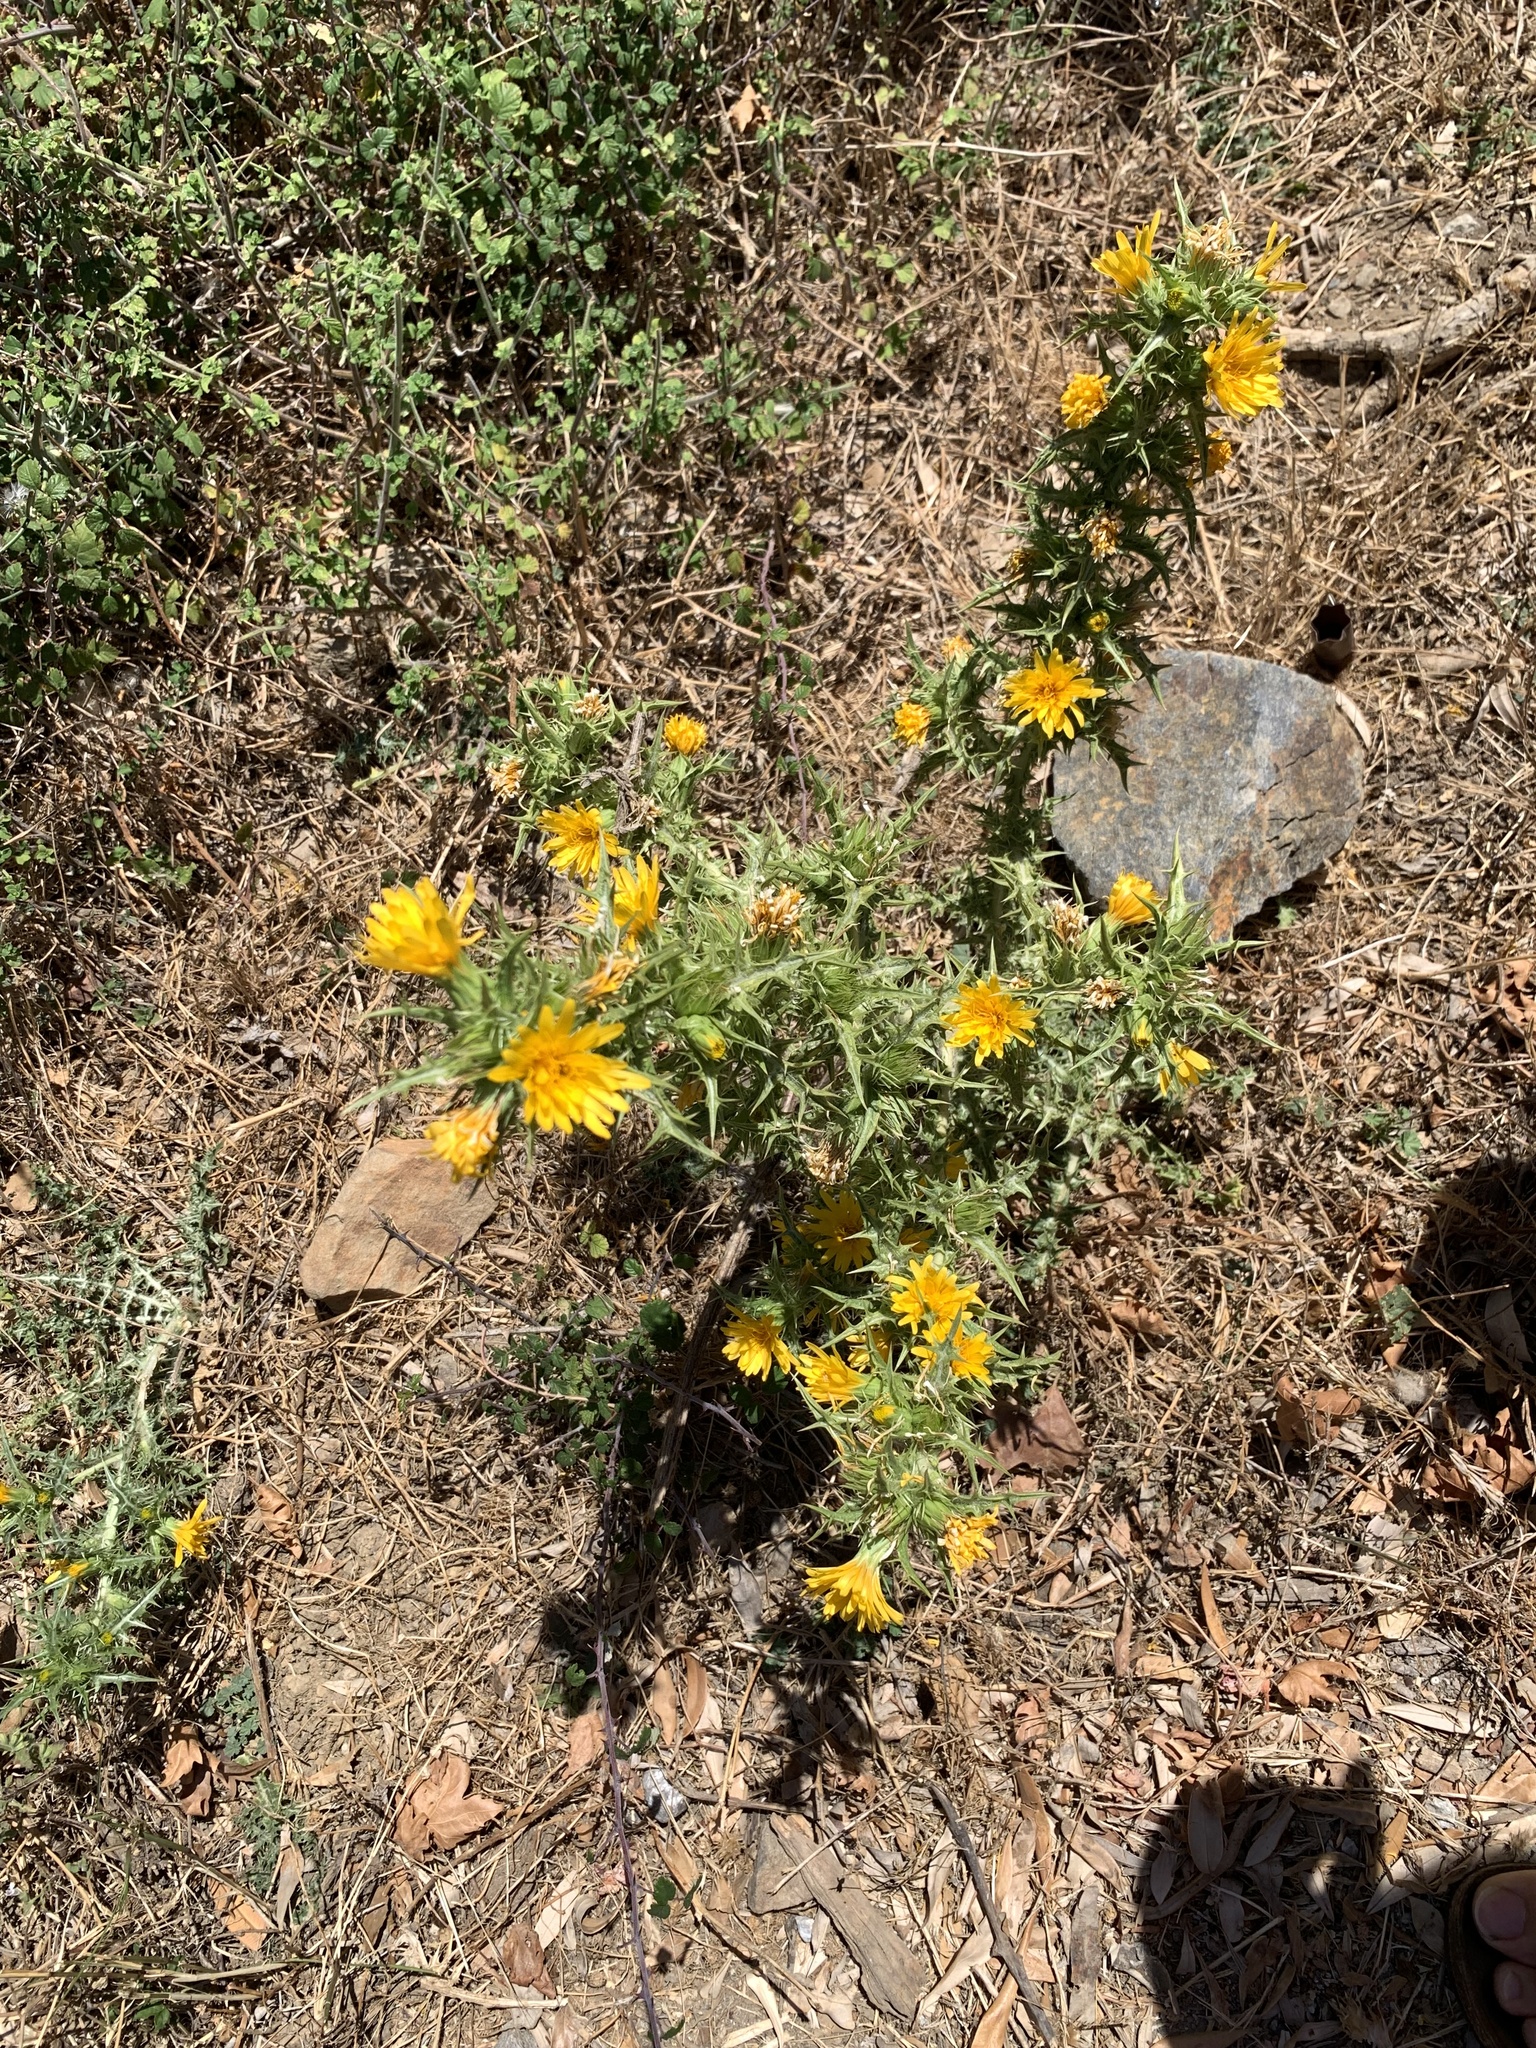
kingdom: Plantae
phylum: Tracheophyta
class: Magnoliopsida
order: Asterales
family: Asteraceae
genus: Scolymus
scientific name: Scolymus hispanicus
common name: Golden thistle
